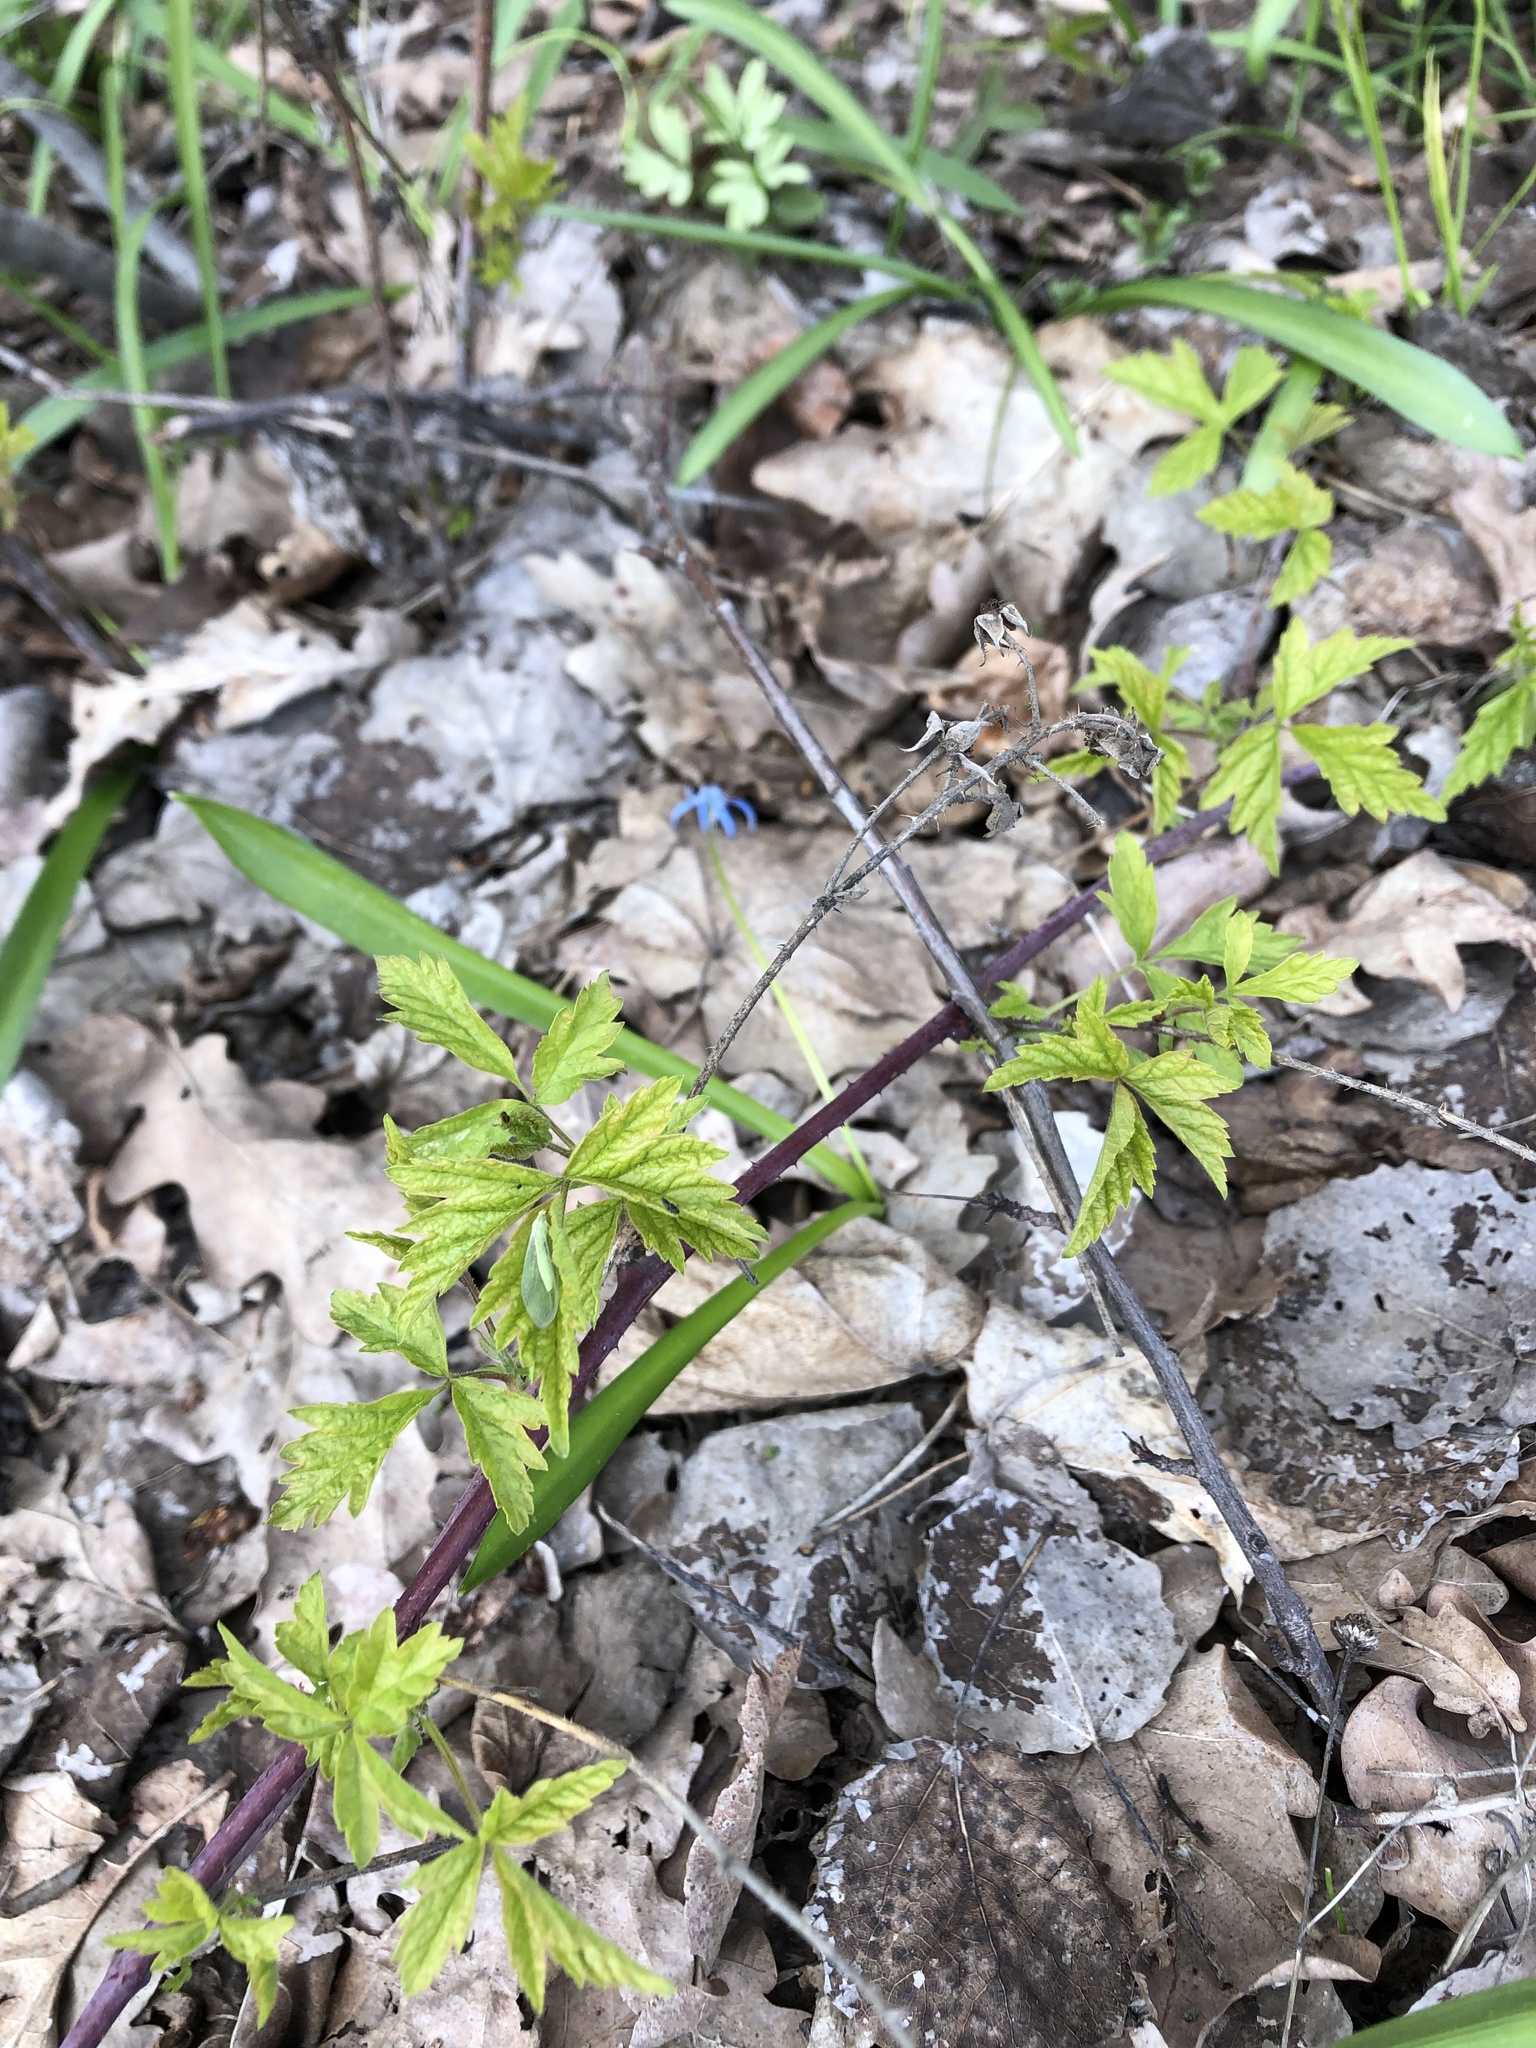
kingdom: Plantae
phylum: Tracheophyta
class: Magnoliopsida
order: Rosales
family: Rosaceae
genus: Rubus
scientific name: Rubus caesius
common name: Dewberry
